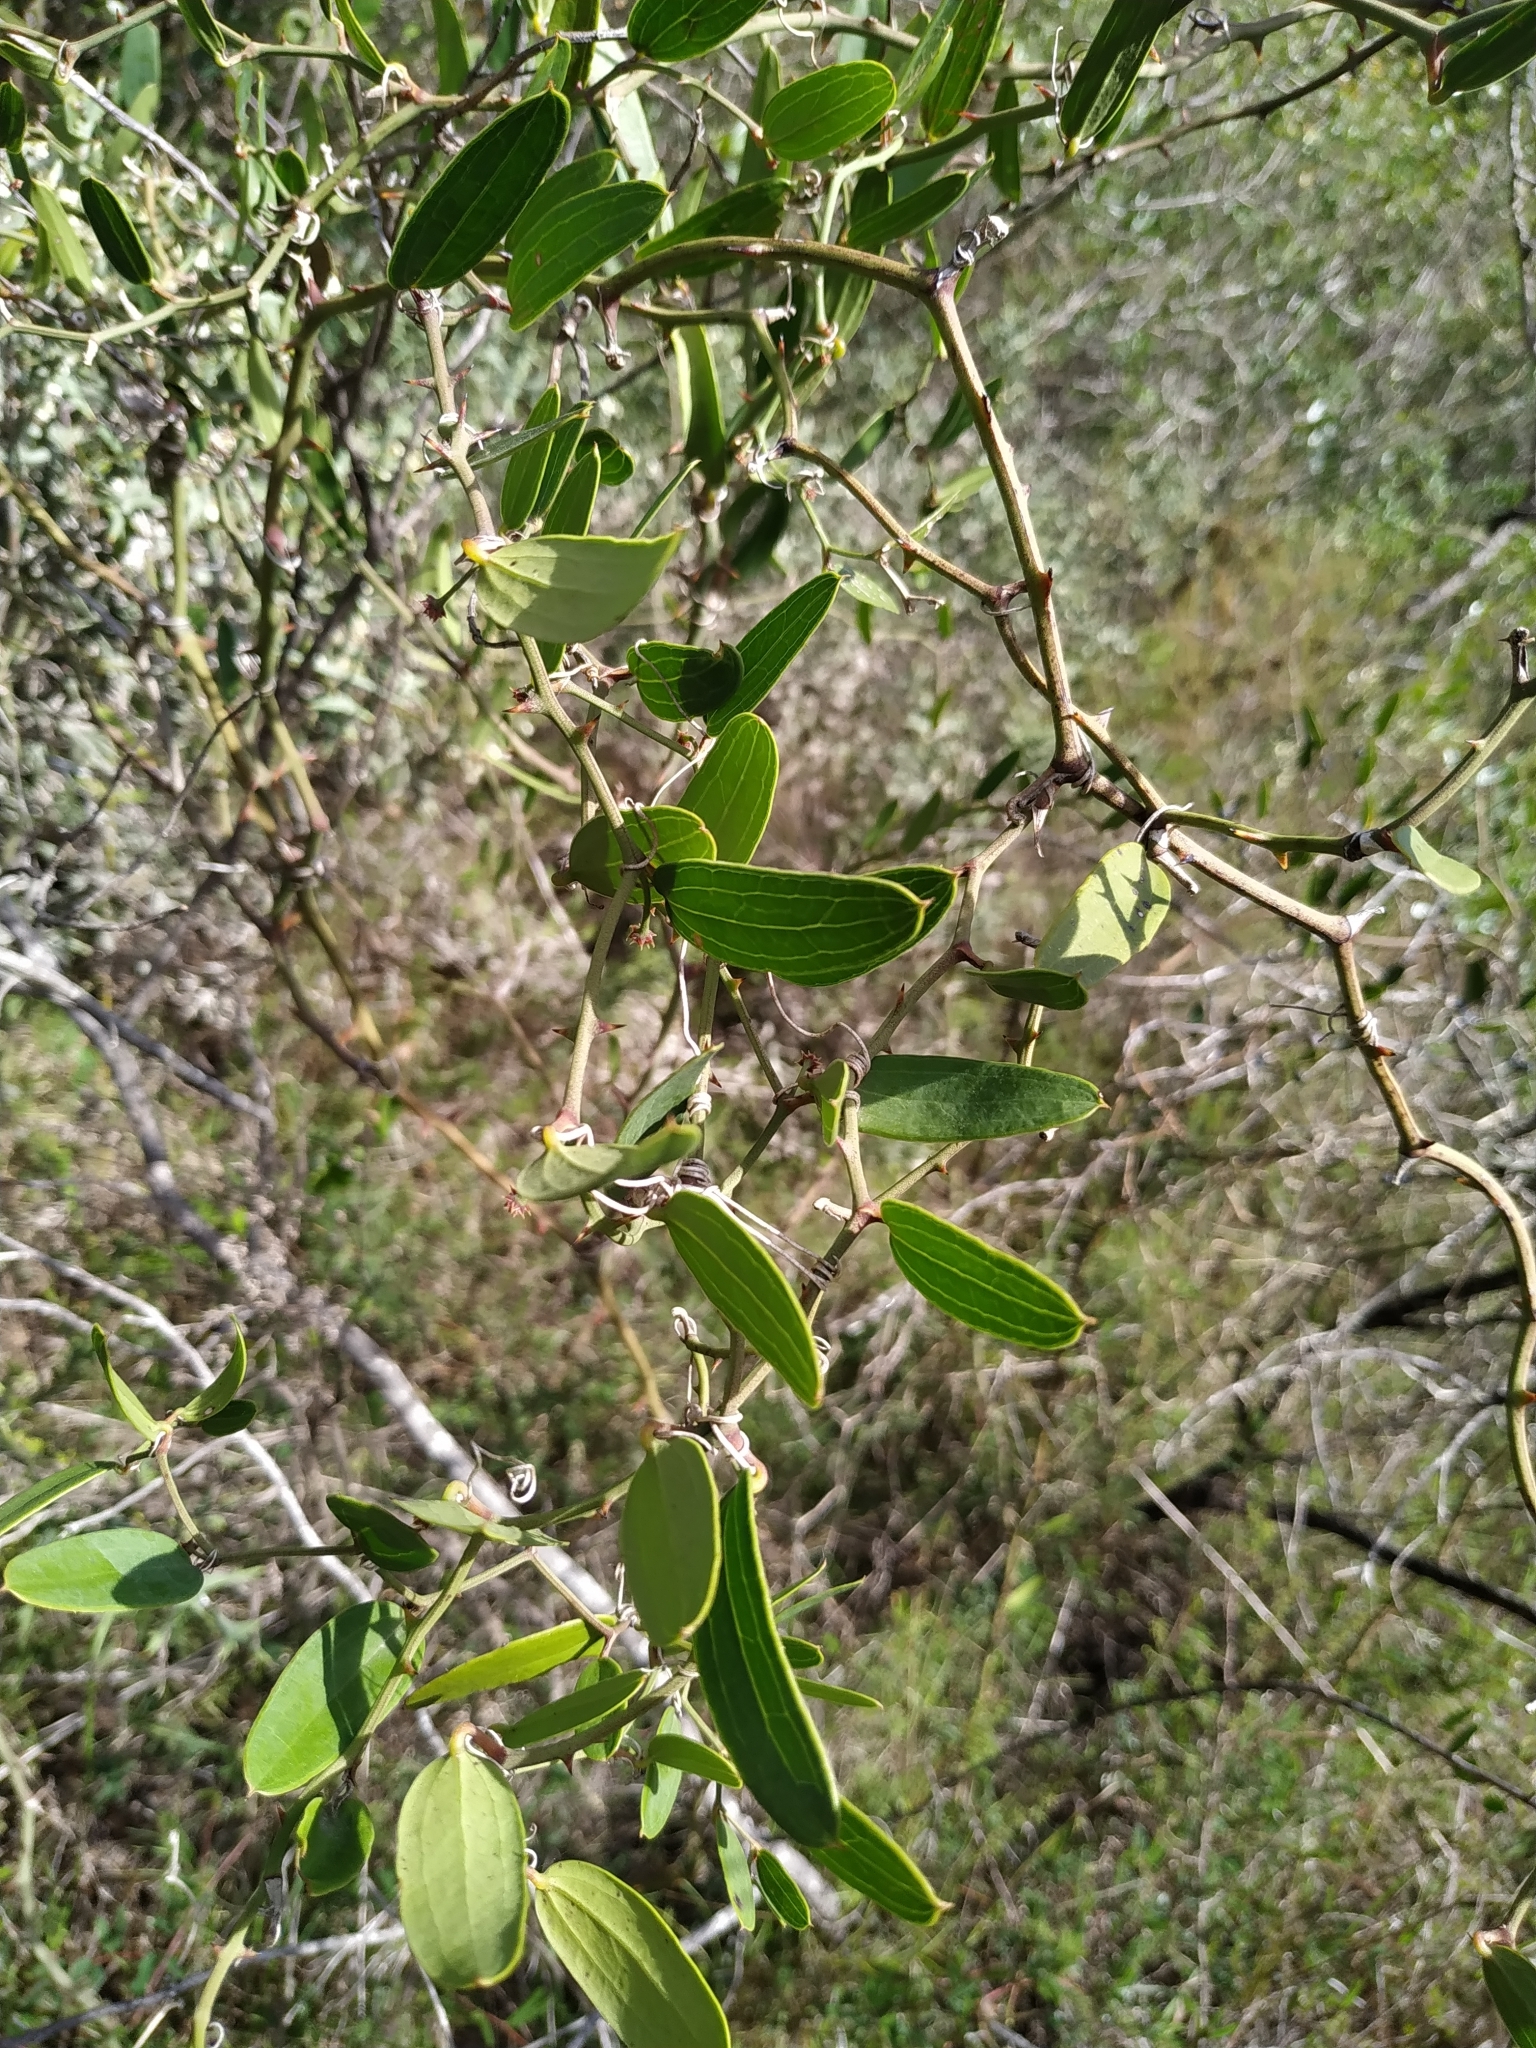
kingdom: Plantae
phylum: Tracheophyta
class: Liliopsida
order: Liliales
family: Smilacaceae
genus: Smilax
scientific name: Smilax campestris
